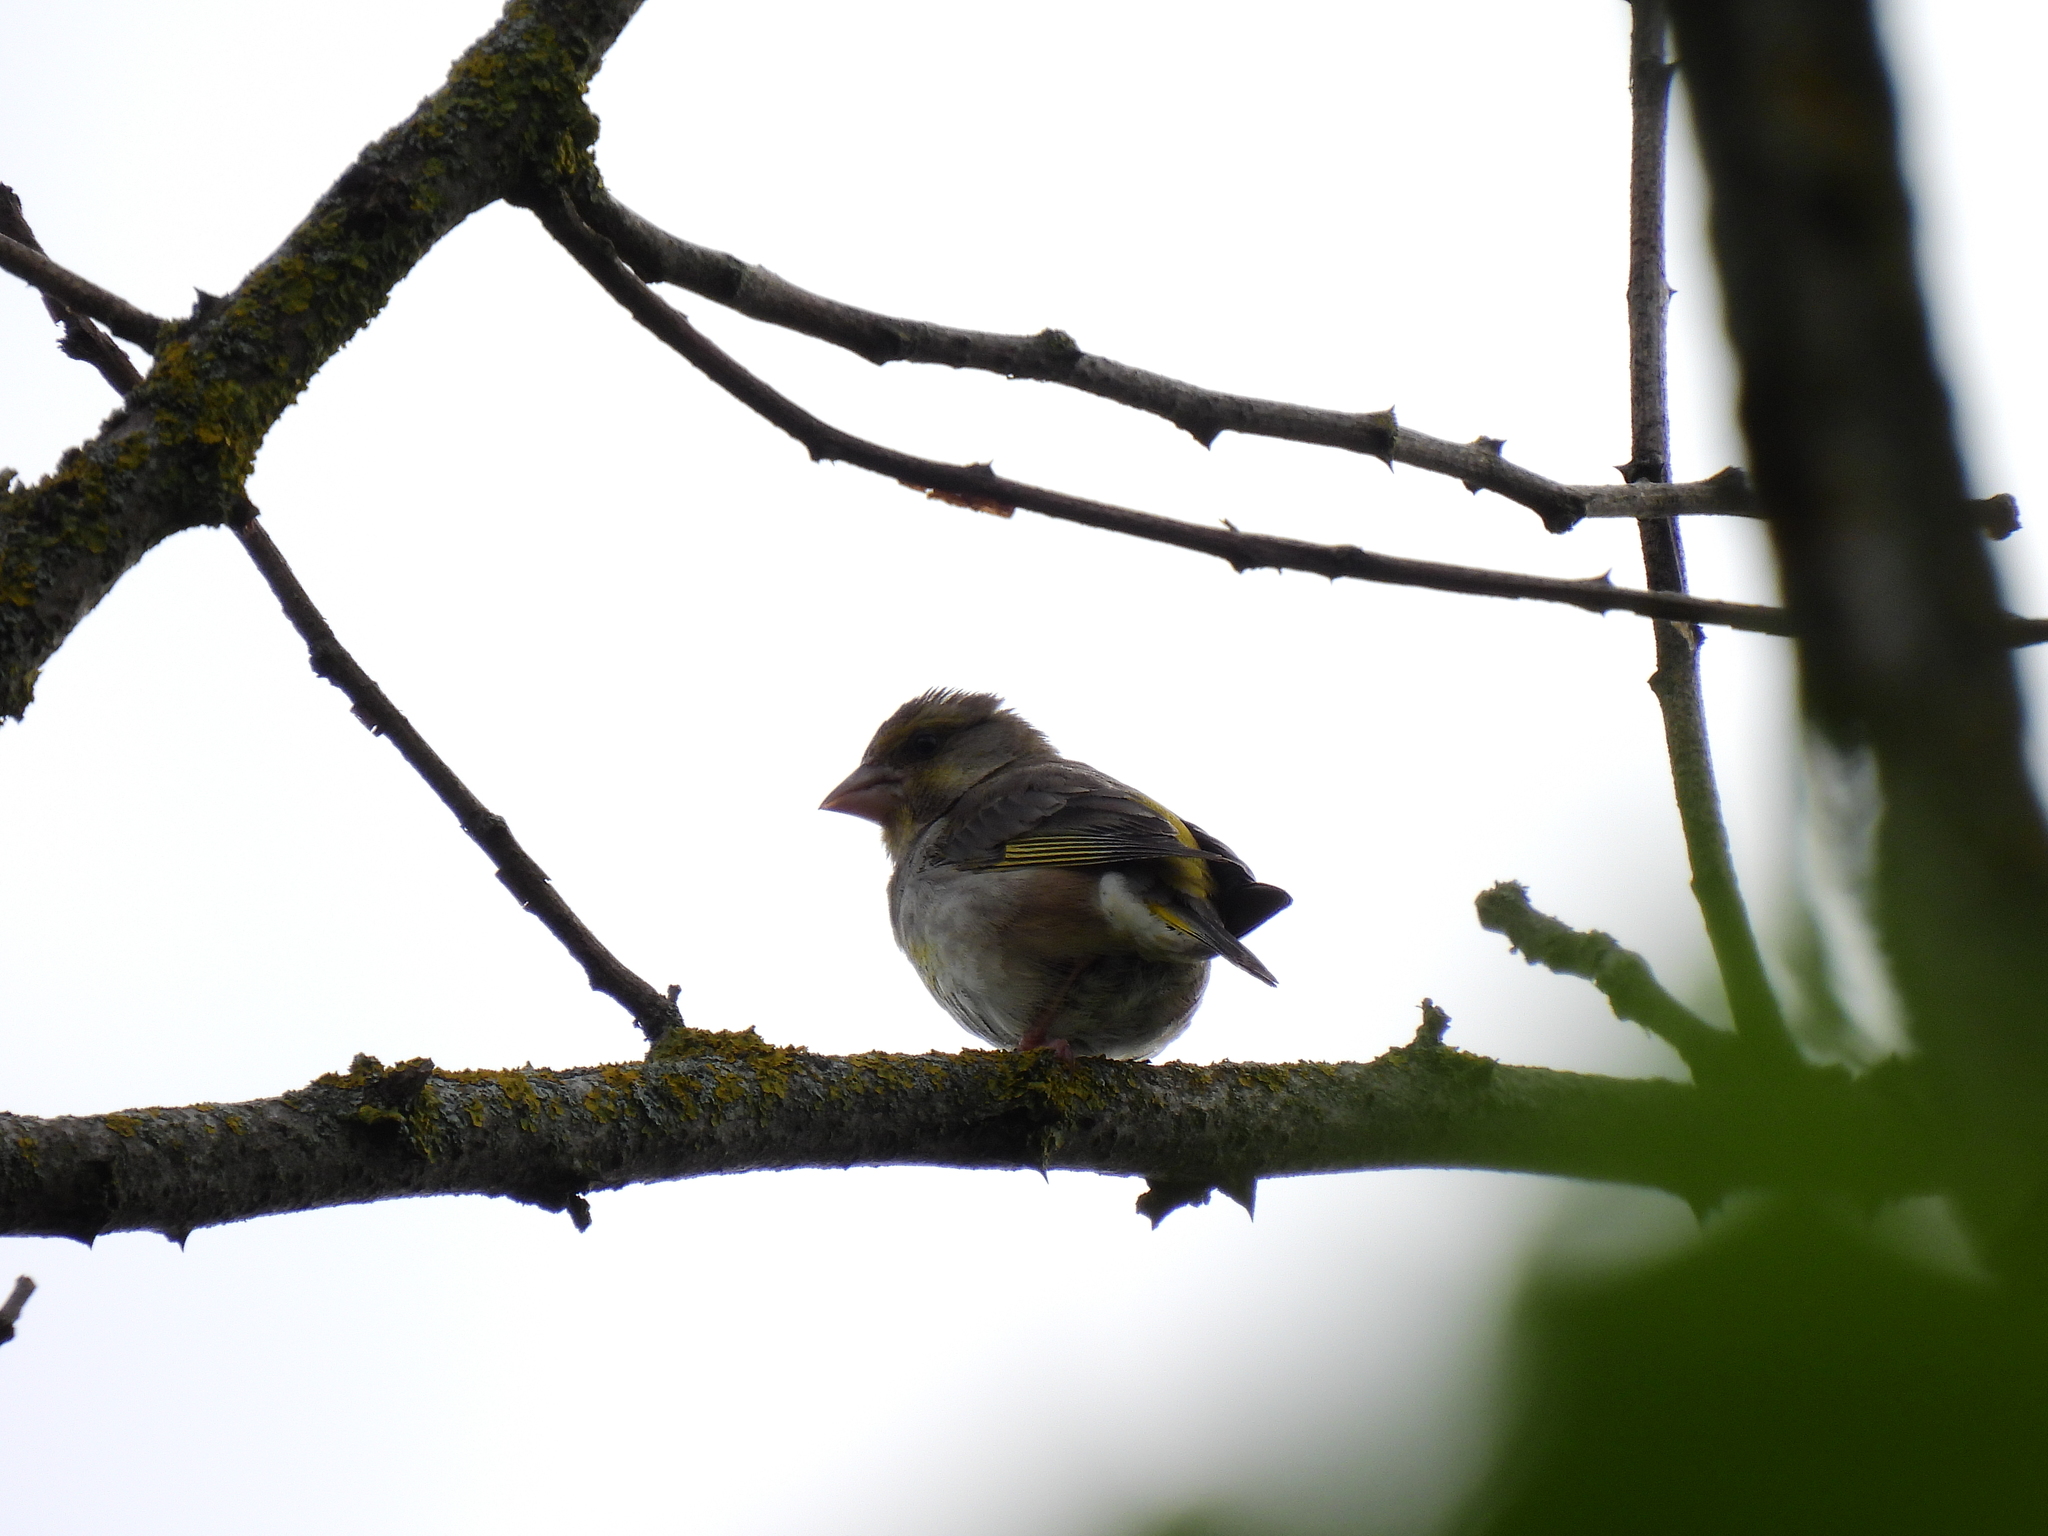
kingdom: Plantae
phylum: Tracheophyta
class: Liliopsida
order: Poales
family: Poaceae
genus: Chloris
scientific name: Chloris chloris
